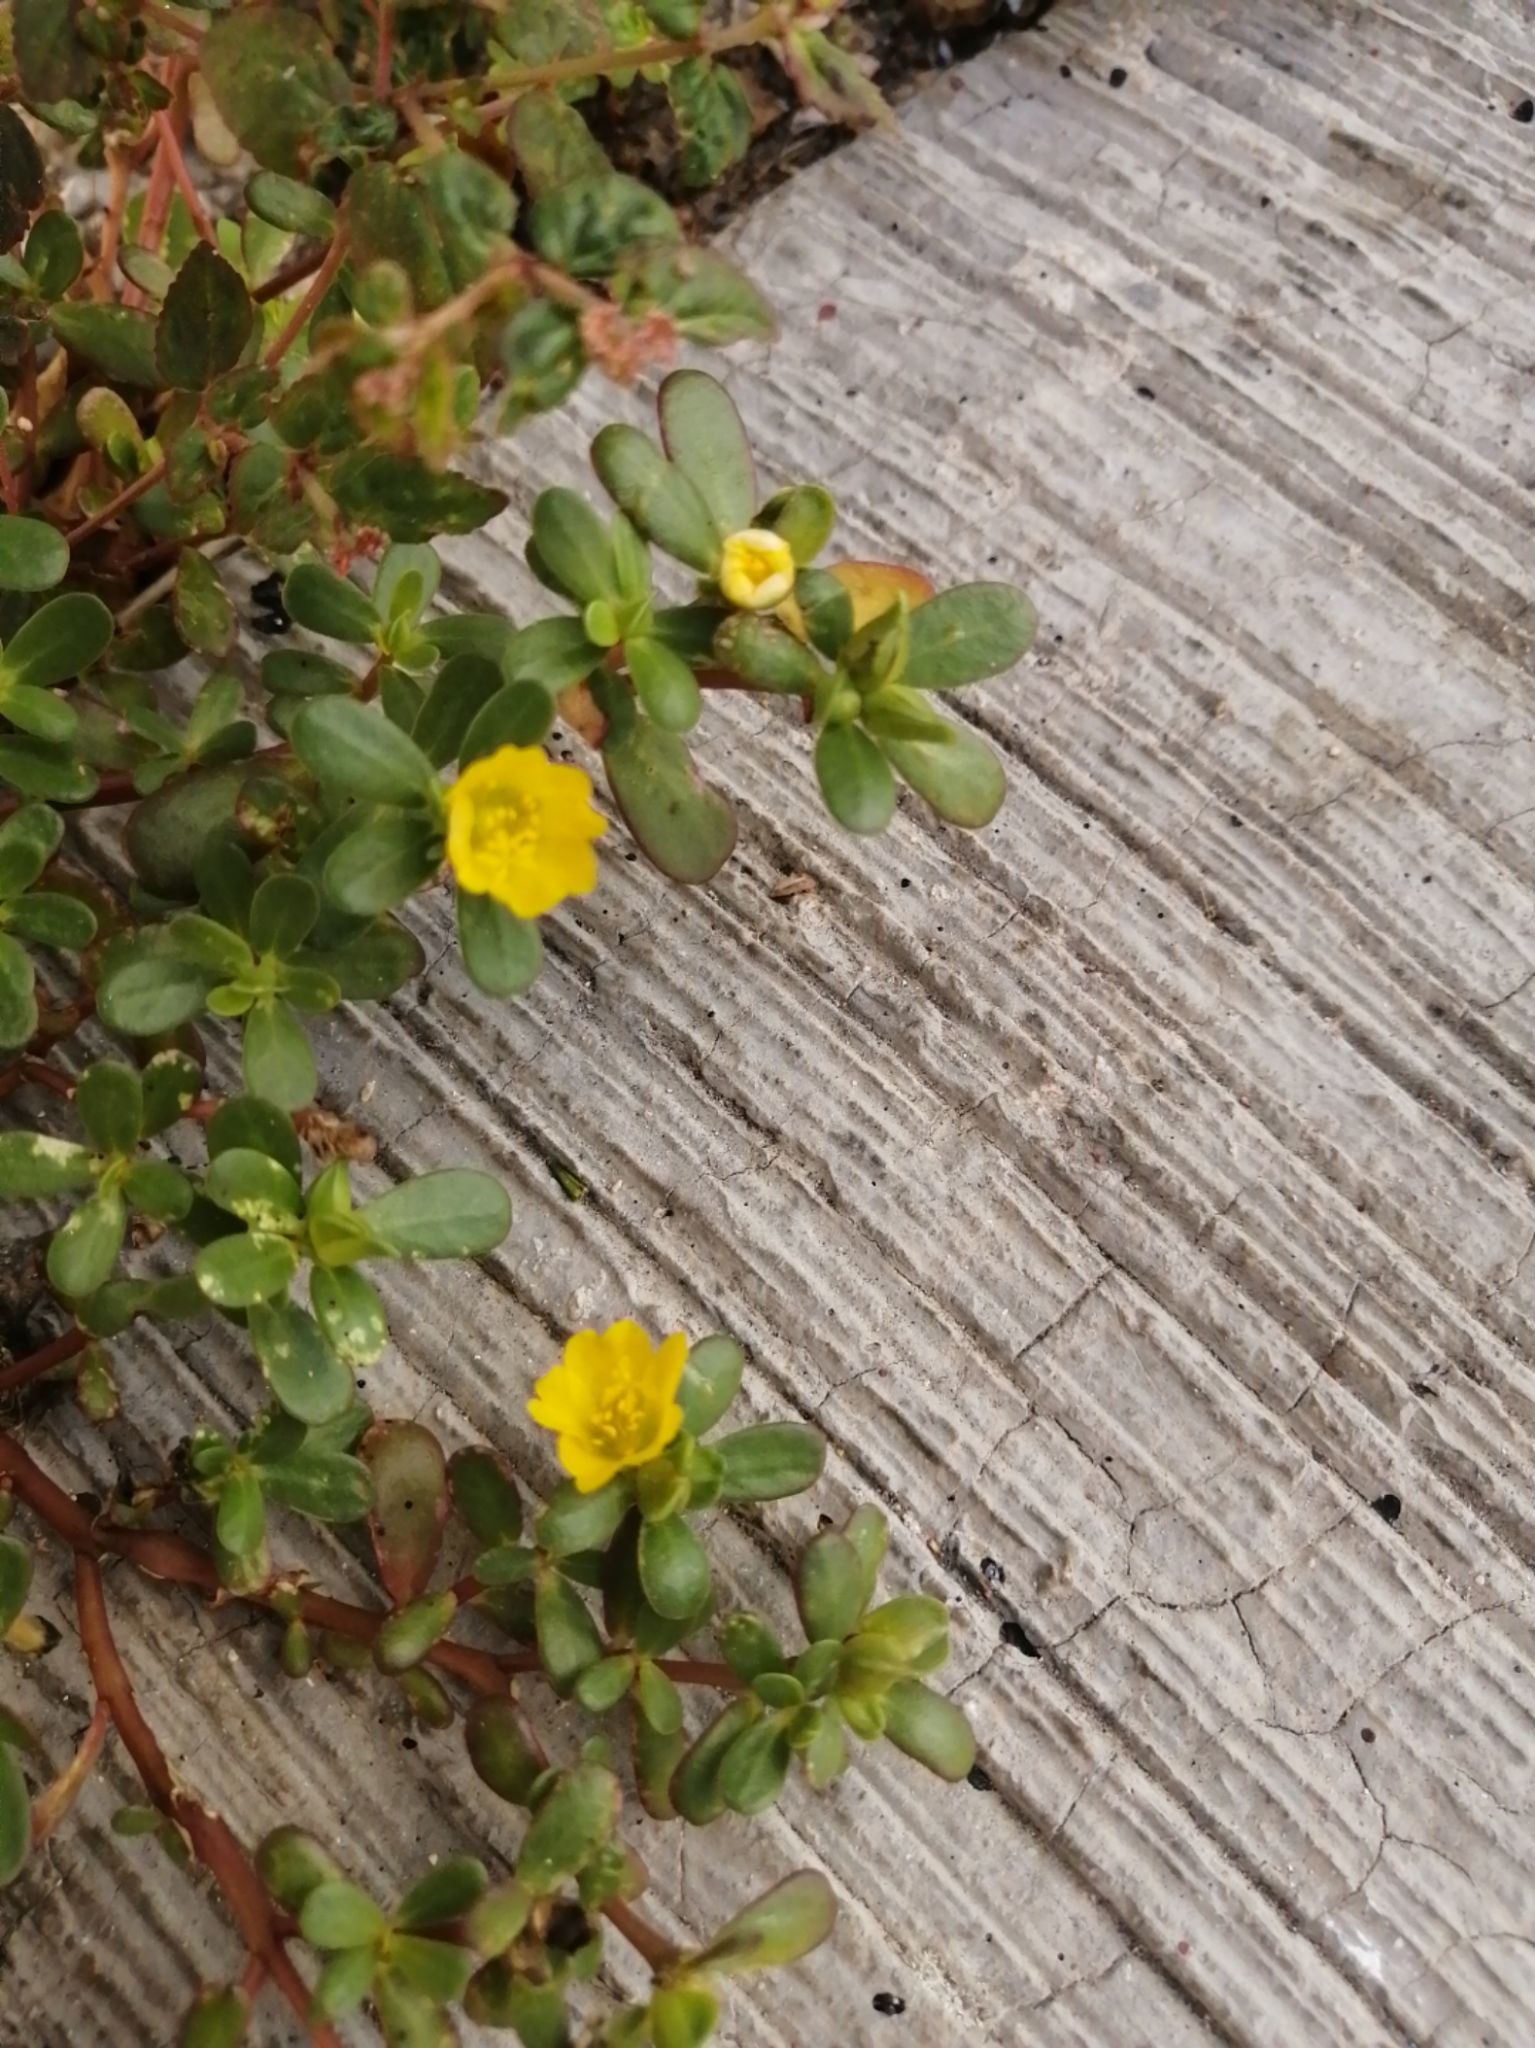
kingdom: Plantae
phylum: Tracheophyta
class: Magnoliopsida
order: Caryophyllales
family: Portulacaceae
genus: Portulaca
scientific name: Portulaca oleracea
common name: Common purslane
